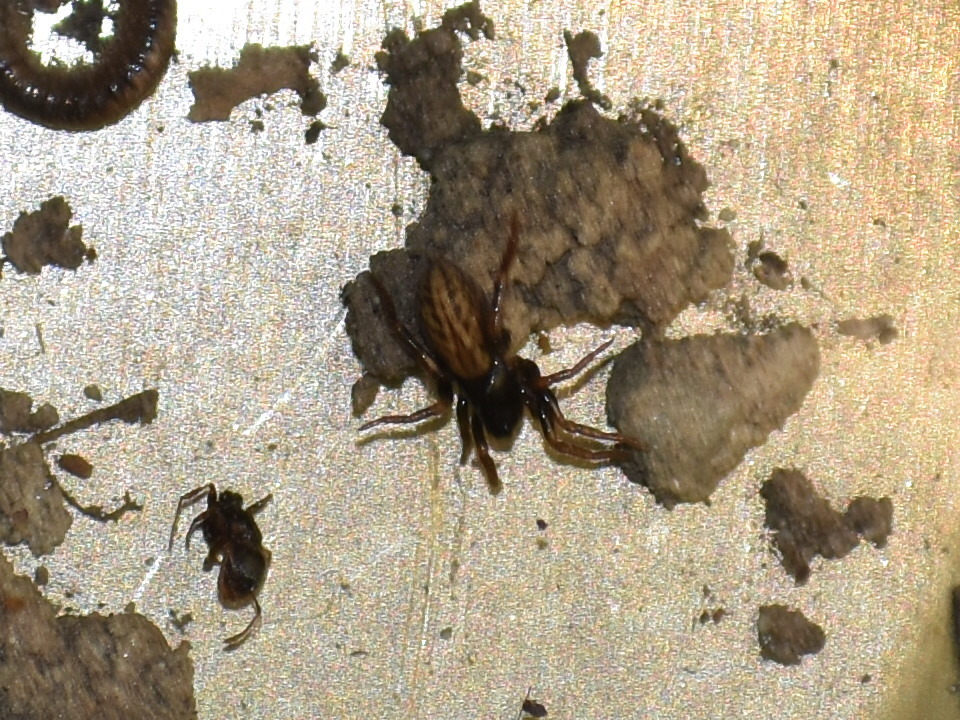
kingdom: Animalia
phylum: Arthropoda
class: Arachnida
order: Araneae
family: Lycosidae
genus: Allocosa
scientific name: Allocosa funerea
